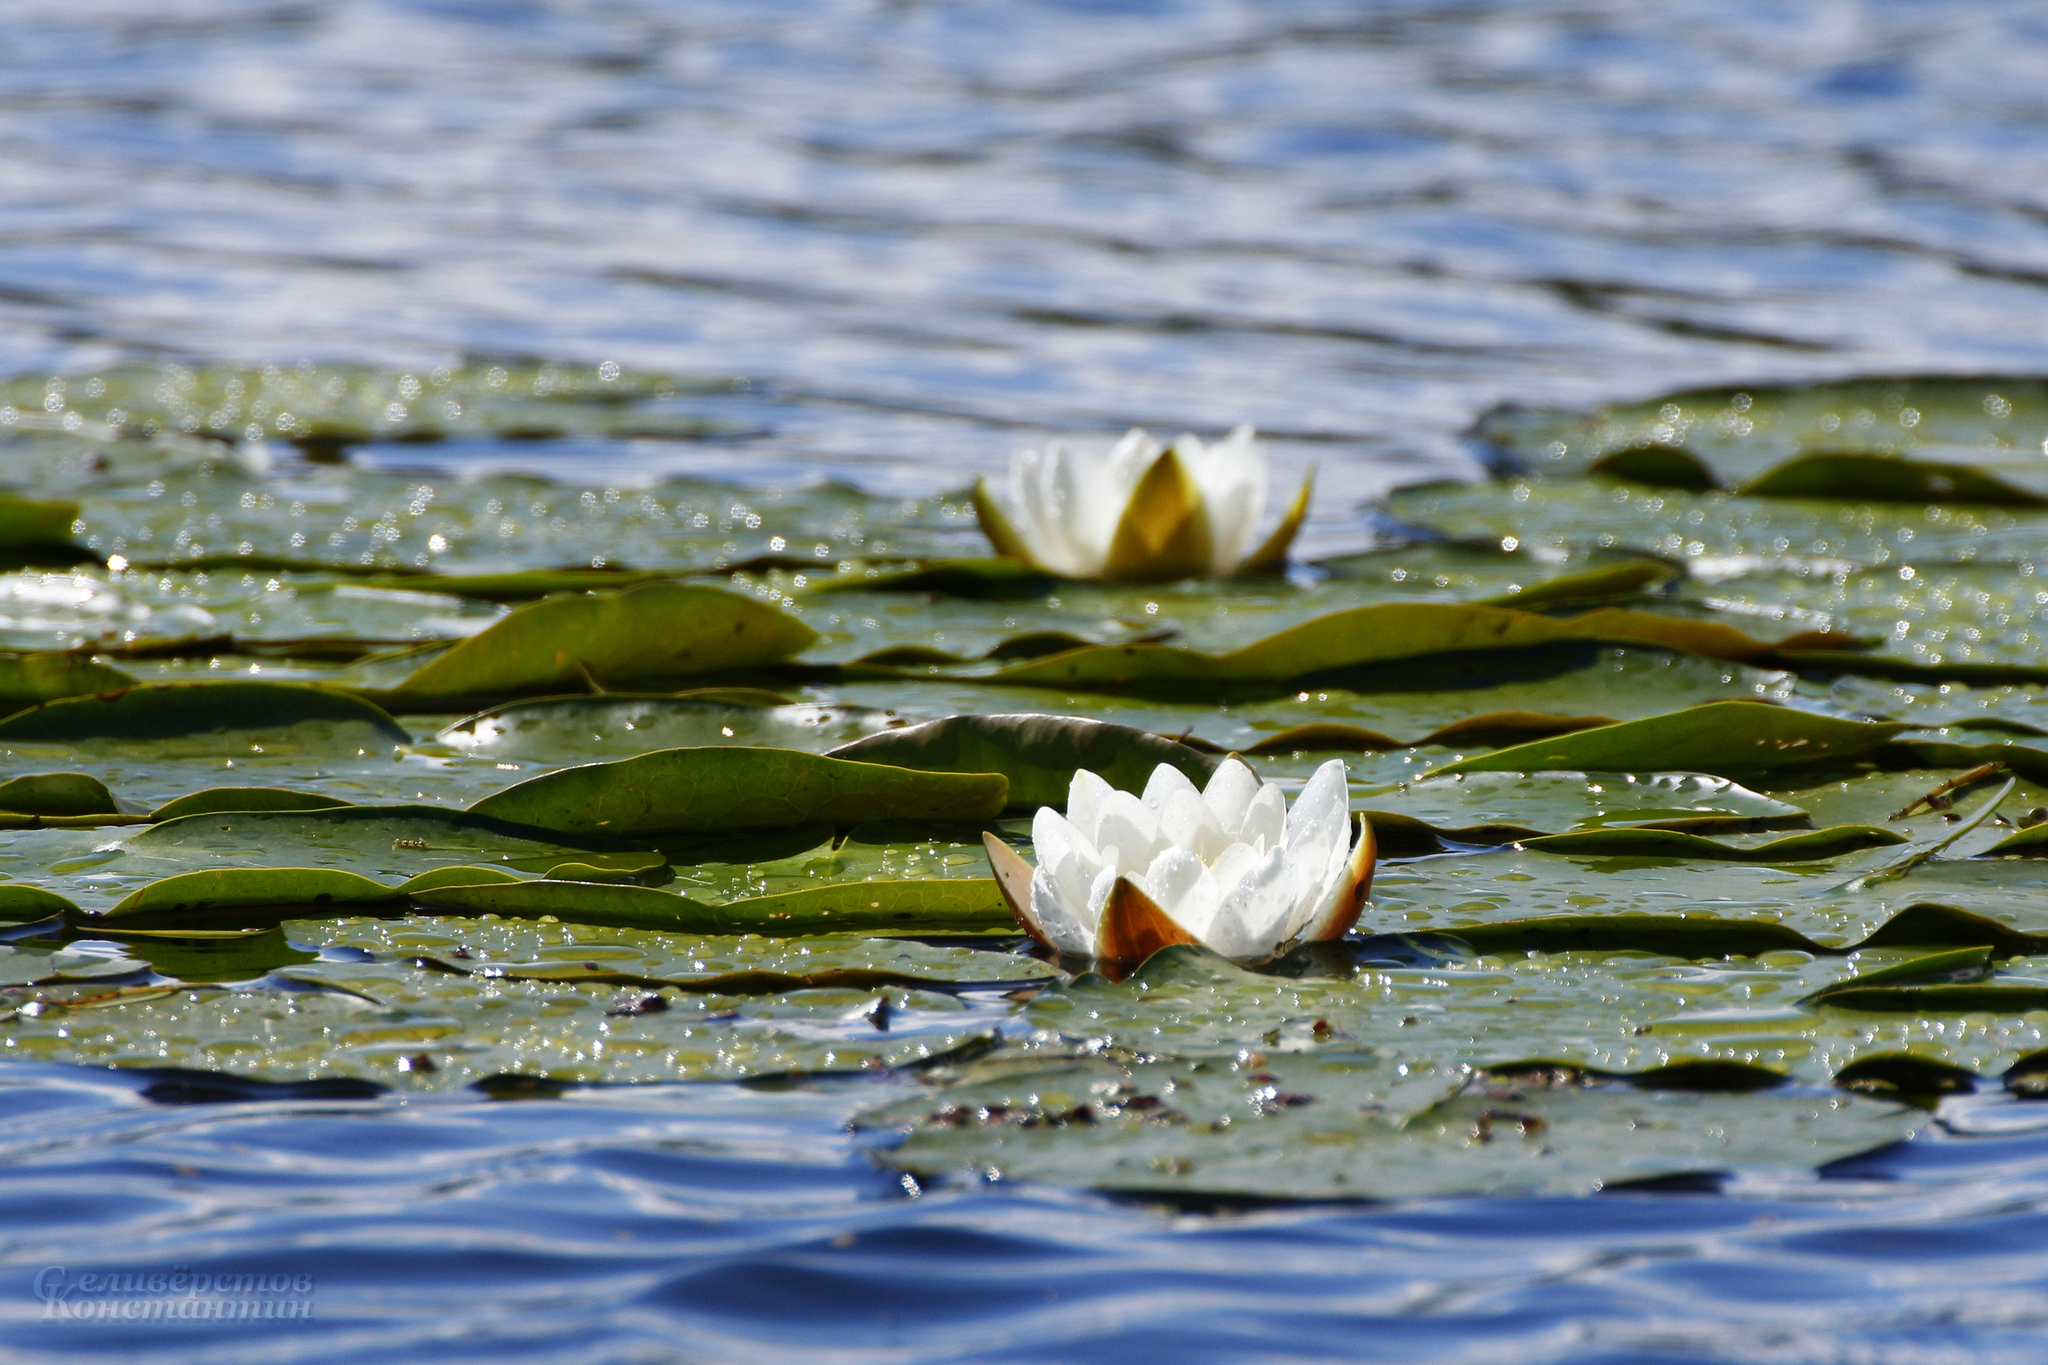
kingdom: Plantae
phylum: Tracheophyta
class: Magnoliopsida
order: Nymphaeales
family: Nymphaeaceae
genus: Nymphaea
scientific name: Nymphaea candida
